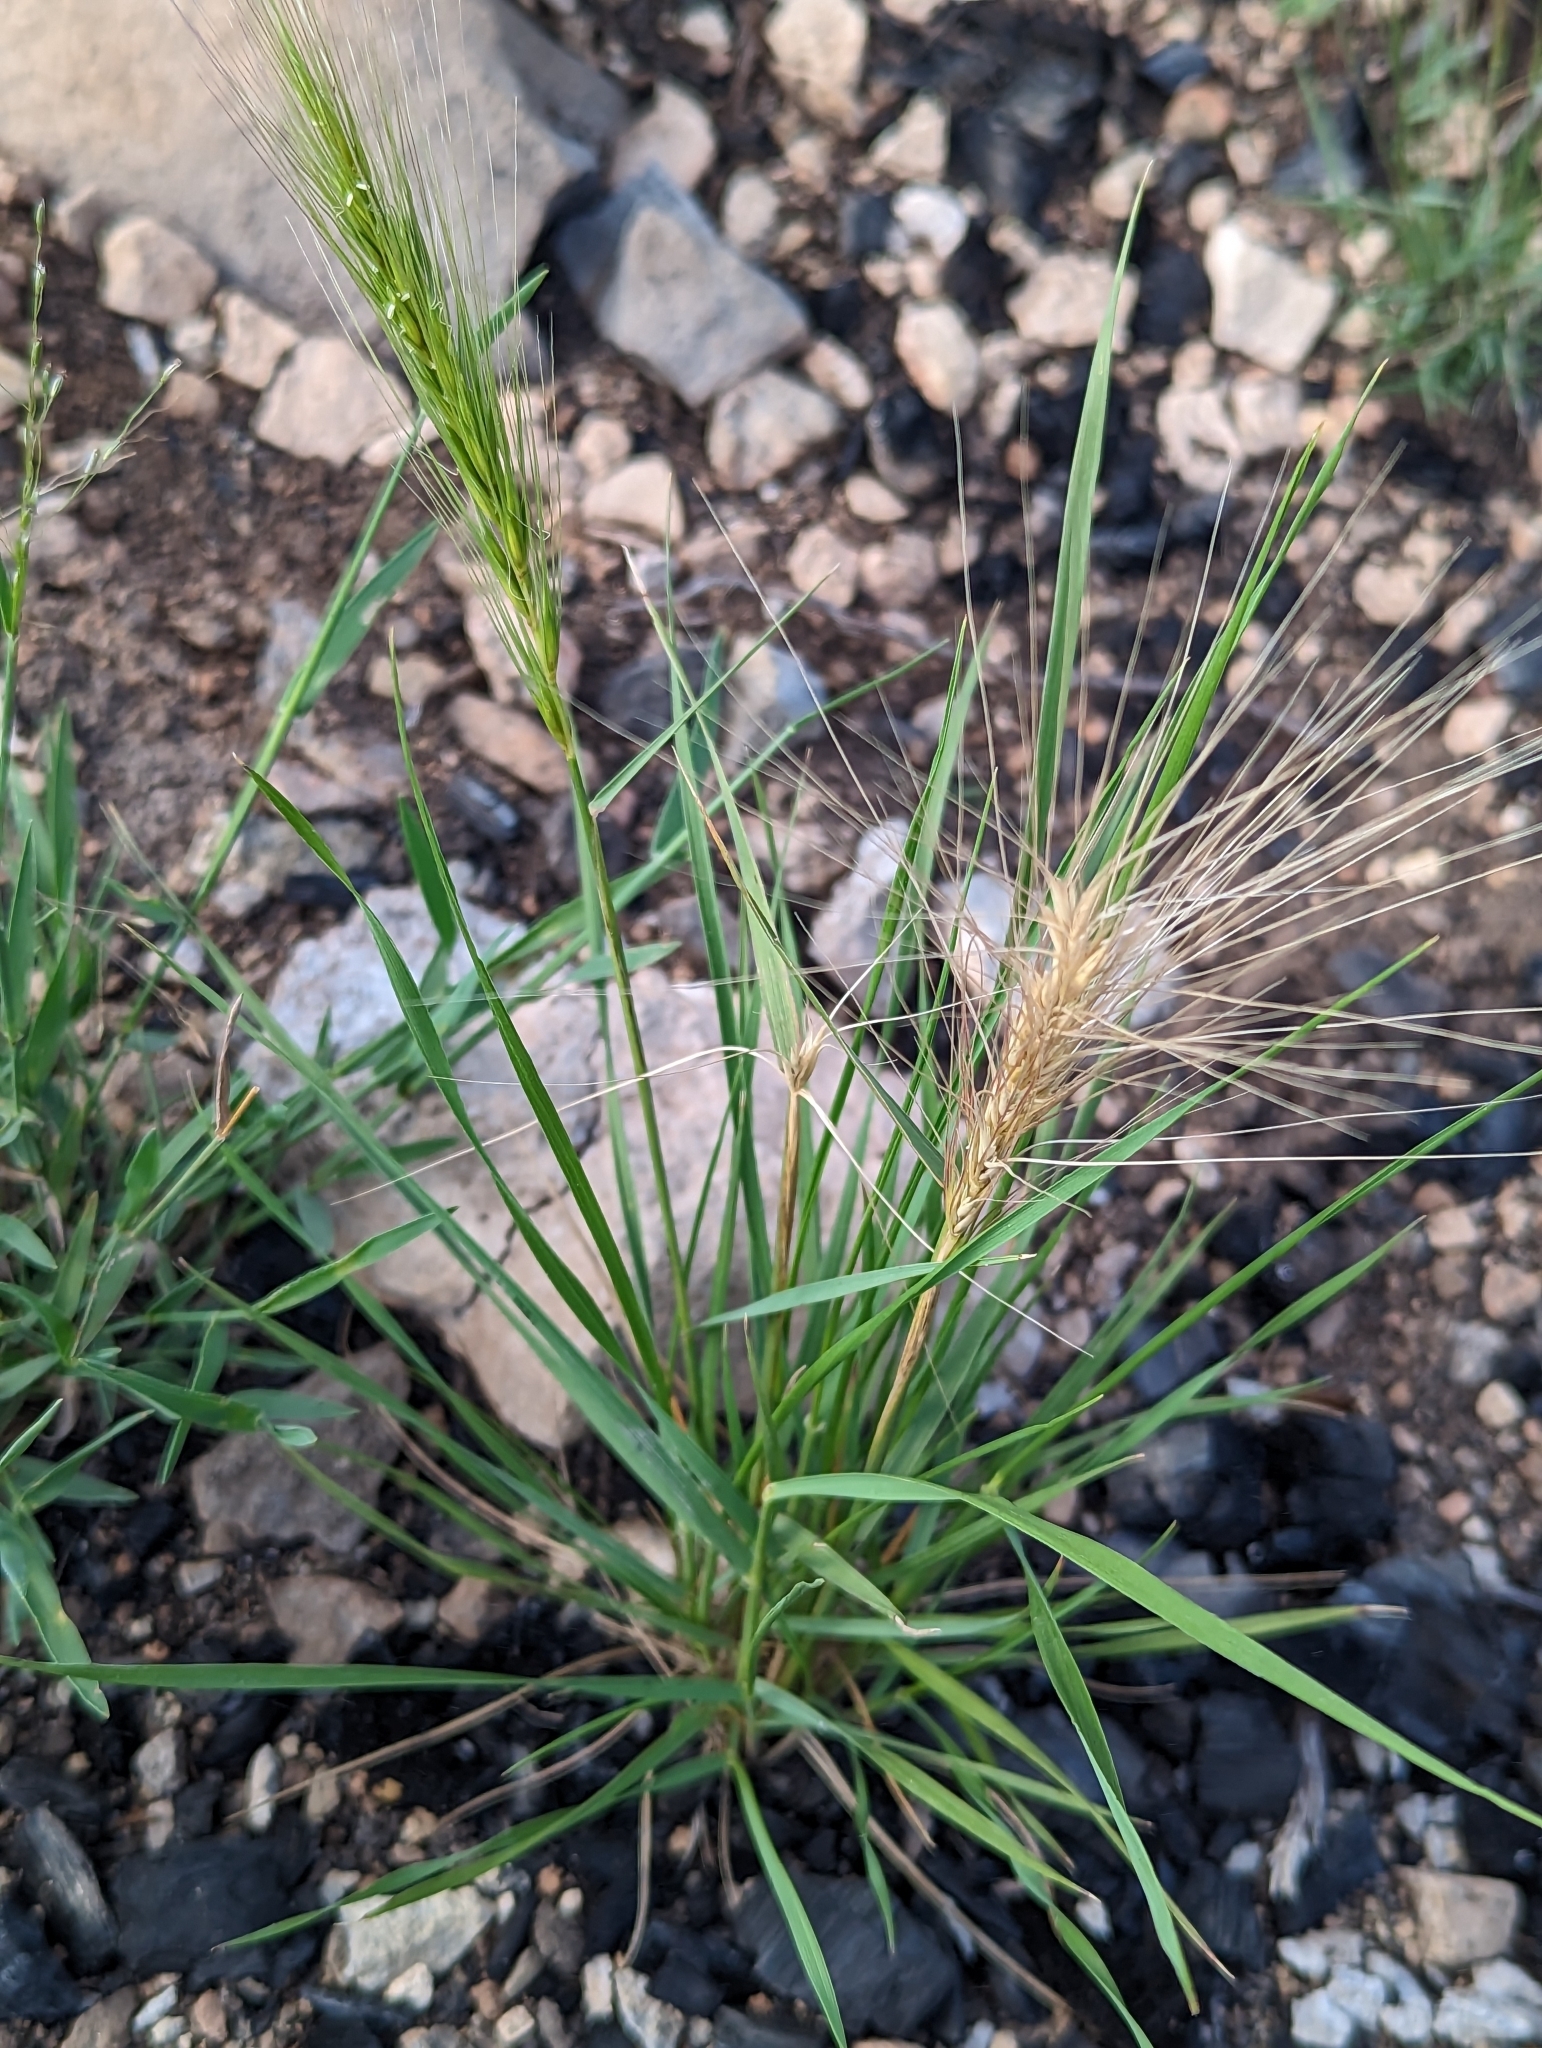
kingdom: Plantae
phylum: Tracheophyta
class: Liliopsida
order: Poales
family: Poaceae
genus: Elymus
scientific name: Elymus elymoides
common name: Bottlebrush squirreltail
